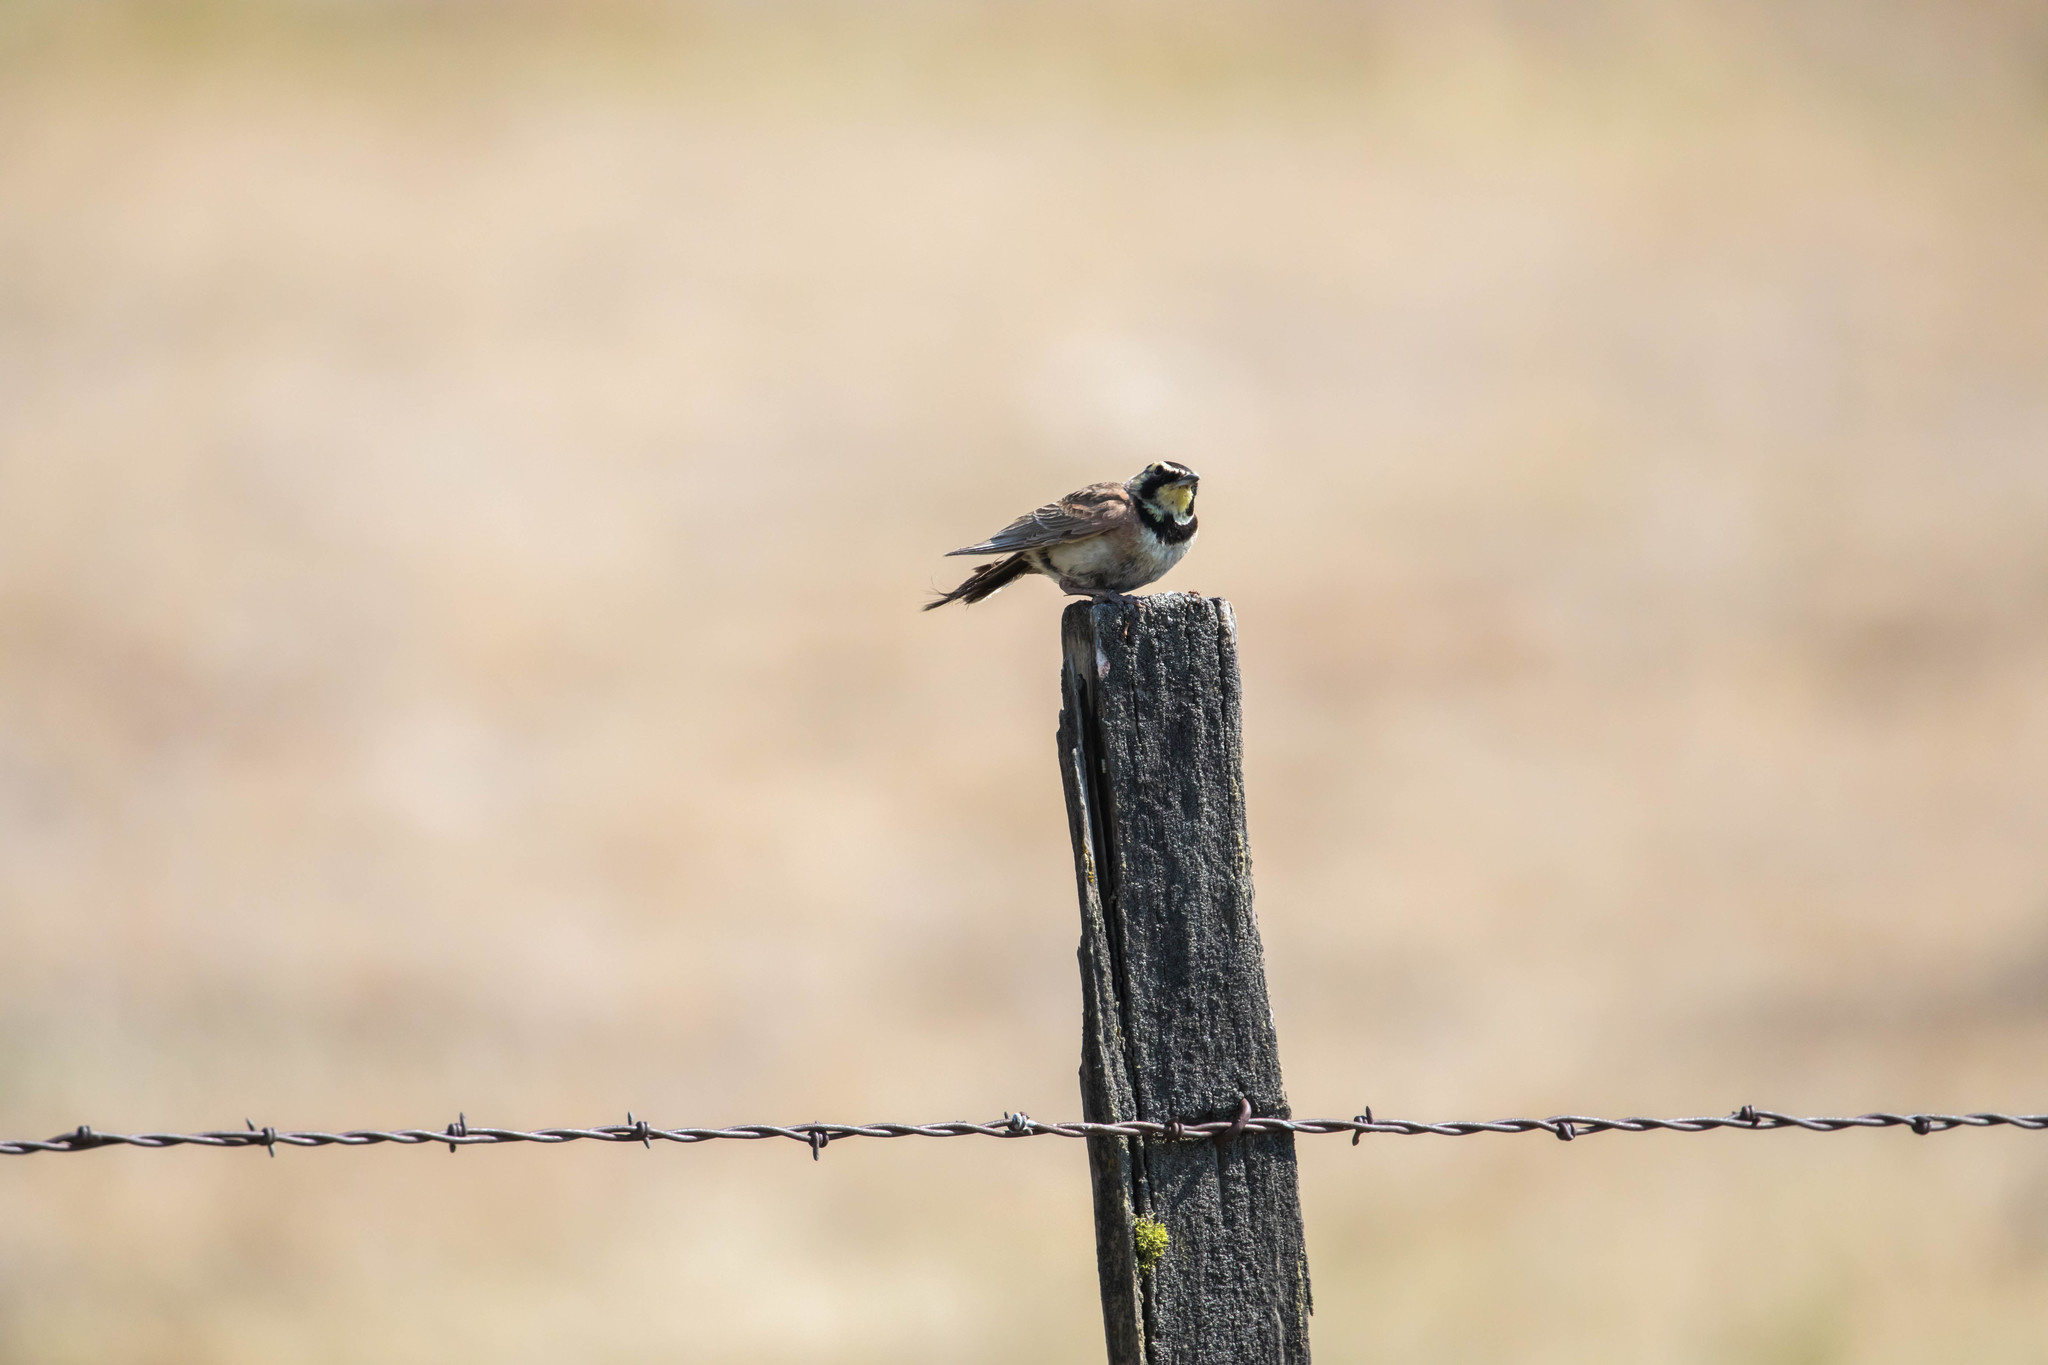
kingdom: Animalia
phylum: Chordata
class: Aves
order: Passeriformes
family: Alaudidae
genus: Eremophila
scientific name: Eremophila alpestris
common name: Horned lark
